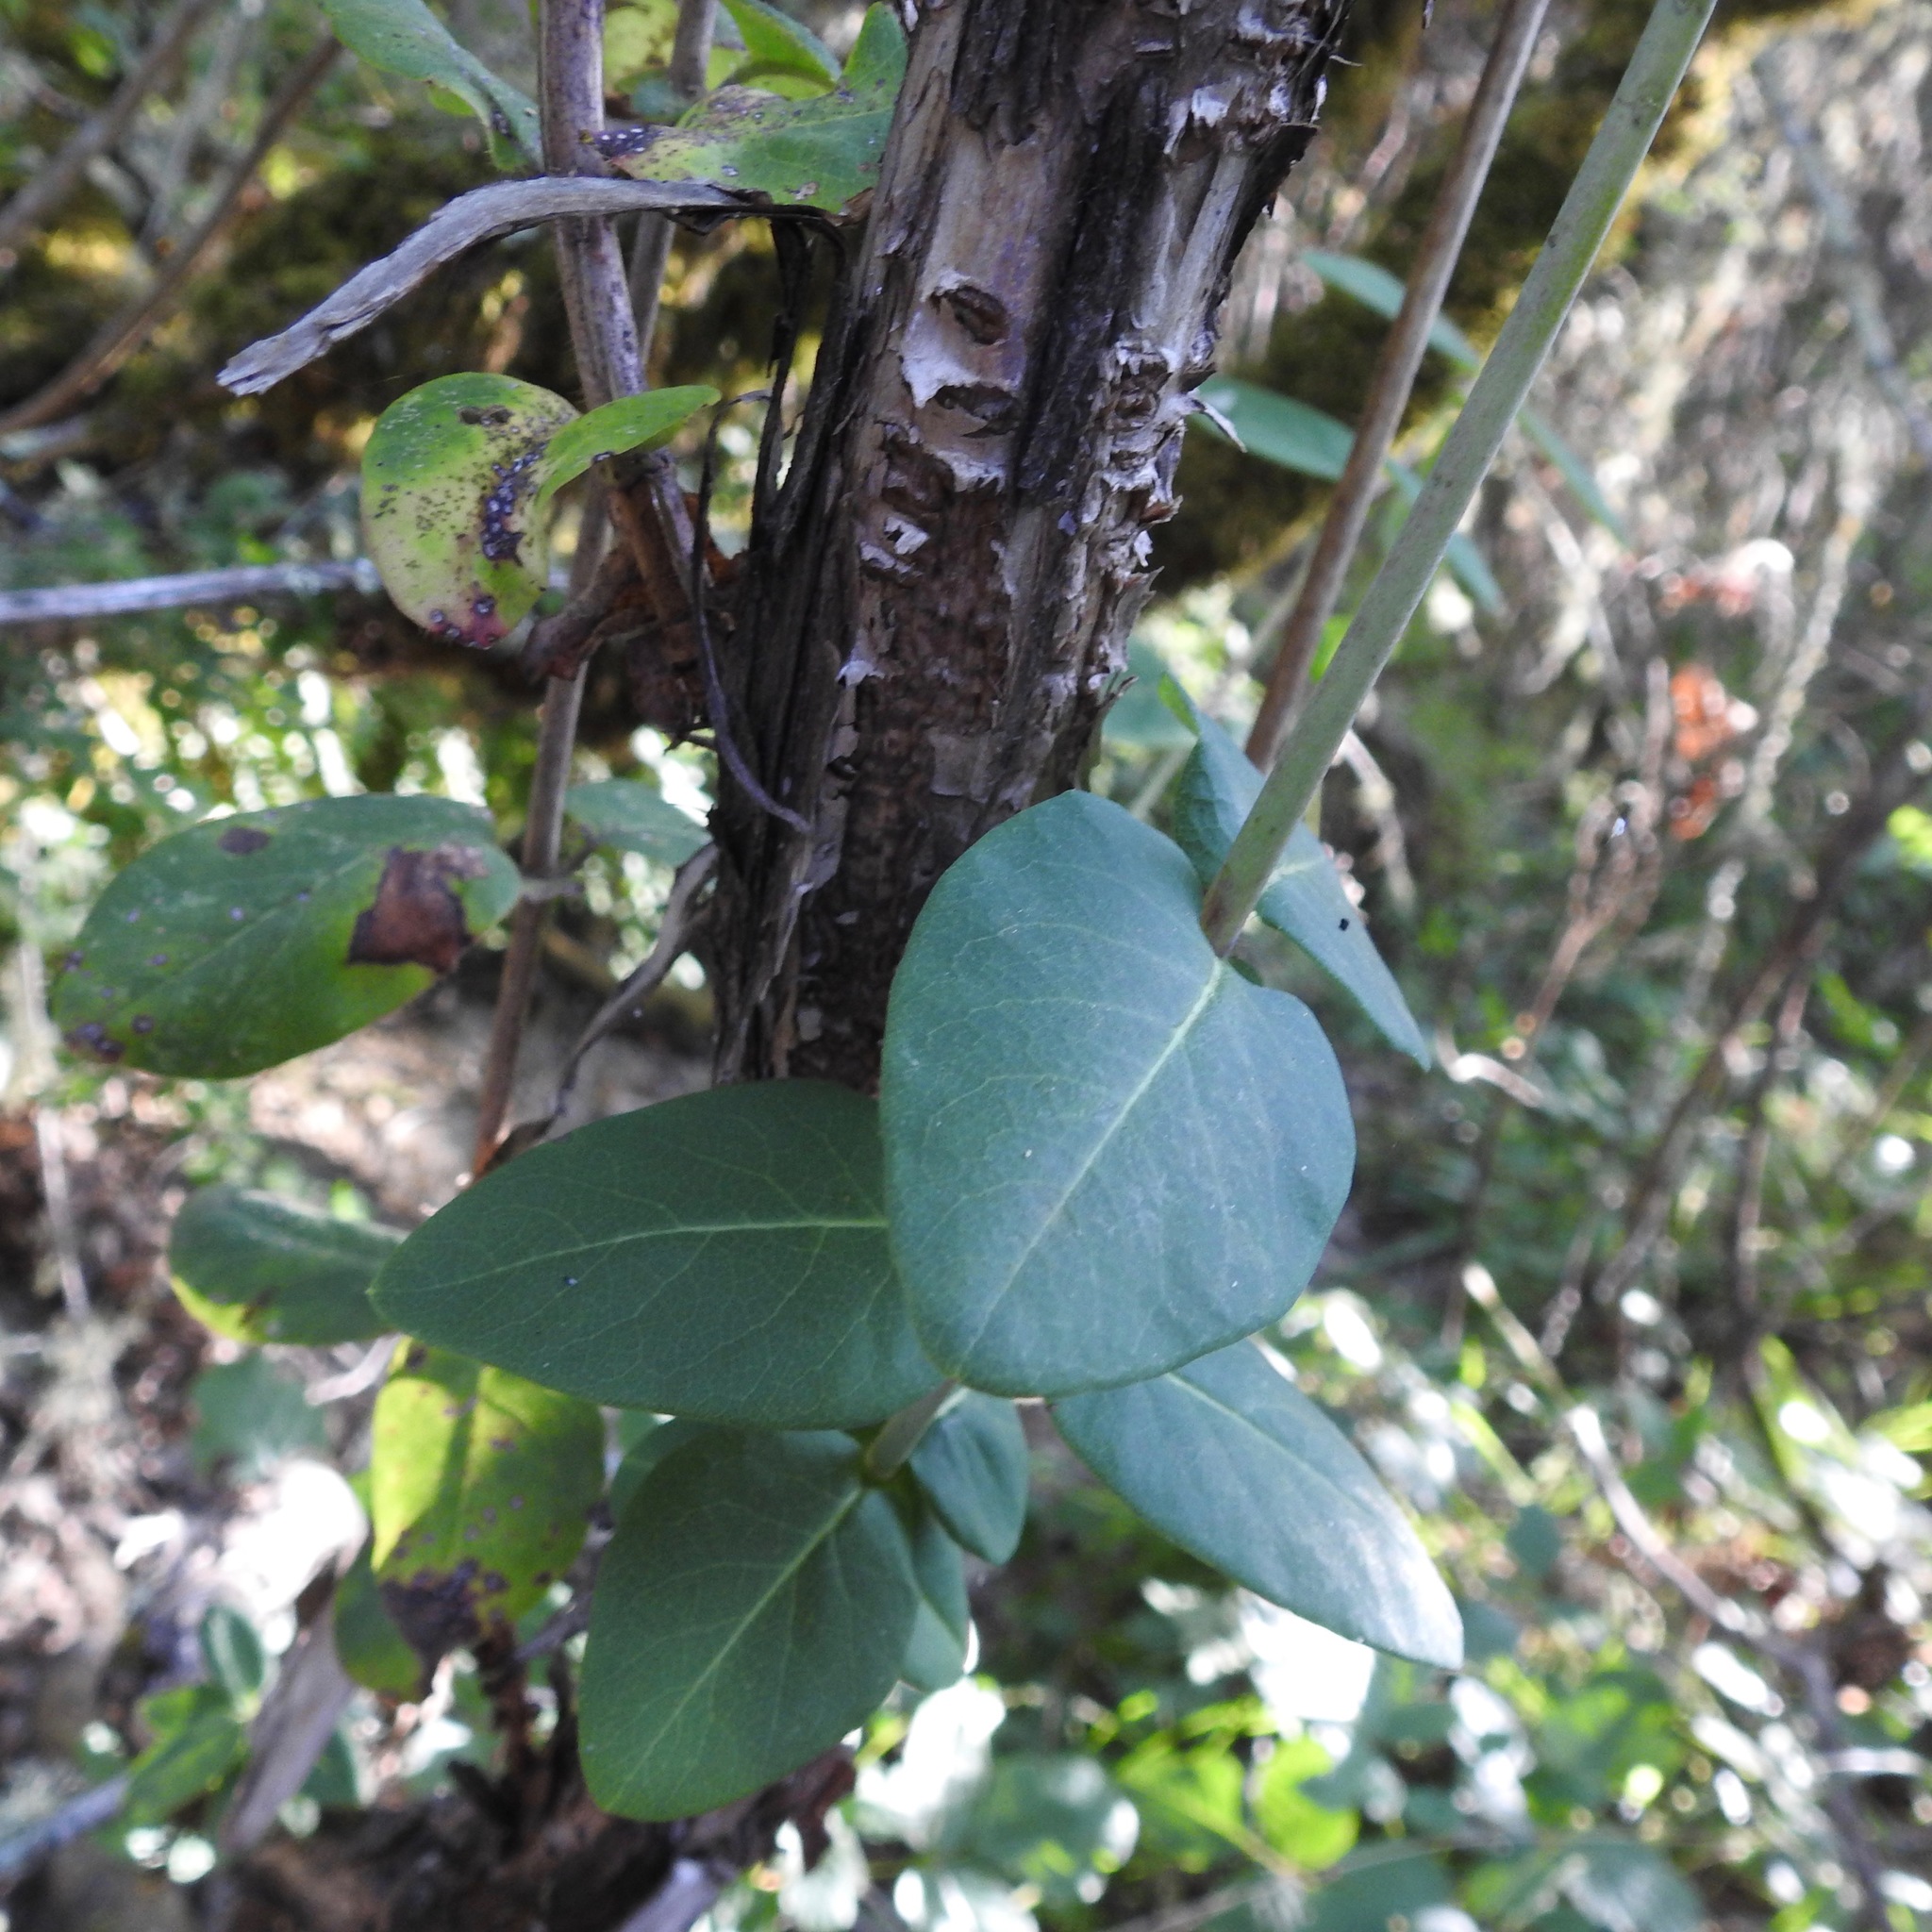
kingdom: Plantae
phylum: Tracheophyta
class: Magnoliopsida
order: Dipsacales
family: Caprifoliaceae
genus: Lonicera
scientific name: Lonicera hispidula
